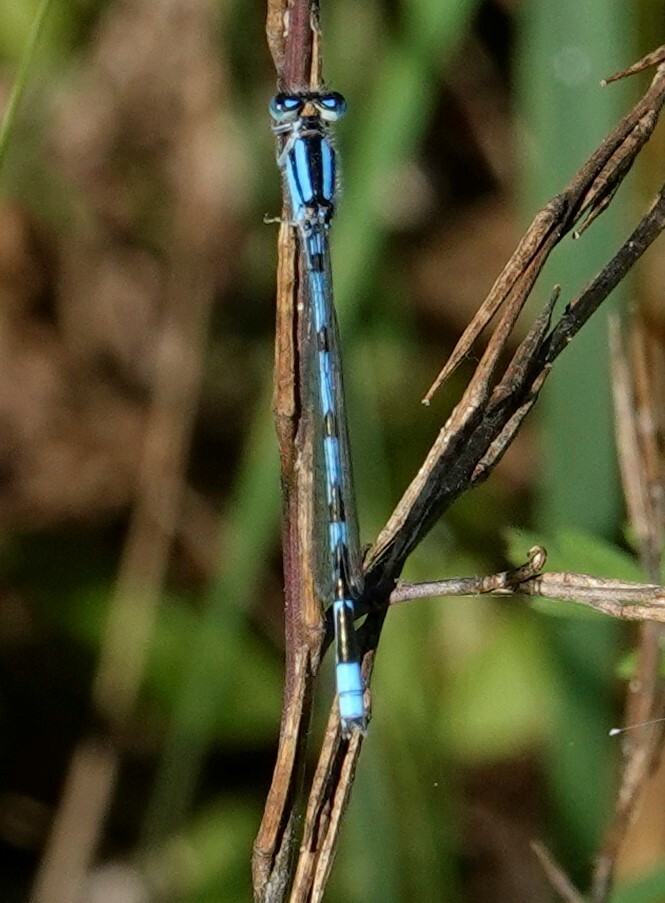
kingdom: Animalia
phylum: Arthropoda
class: Insecta
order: Odonata
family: Coenagrionidae
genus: Enallagma
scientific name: Enallagma civile
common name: Damselfly
